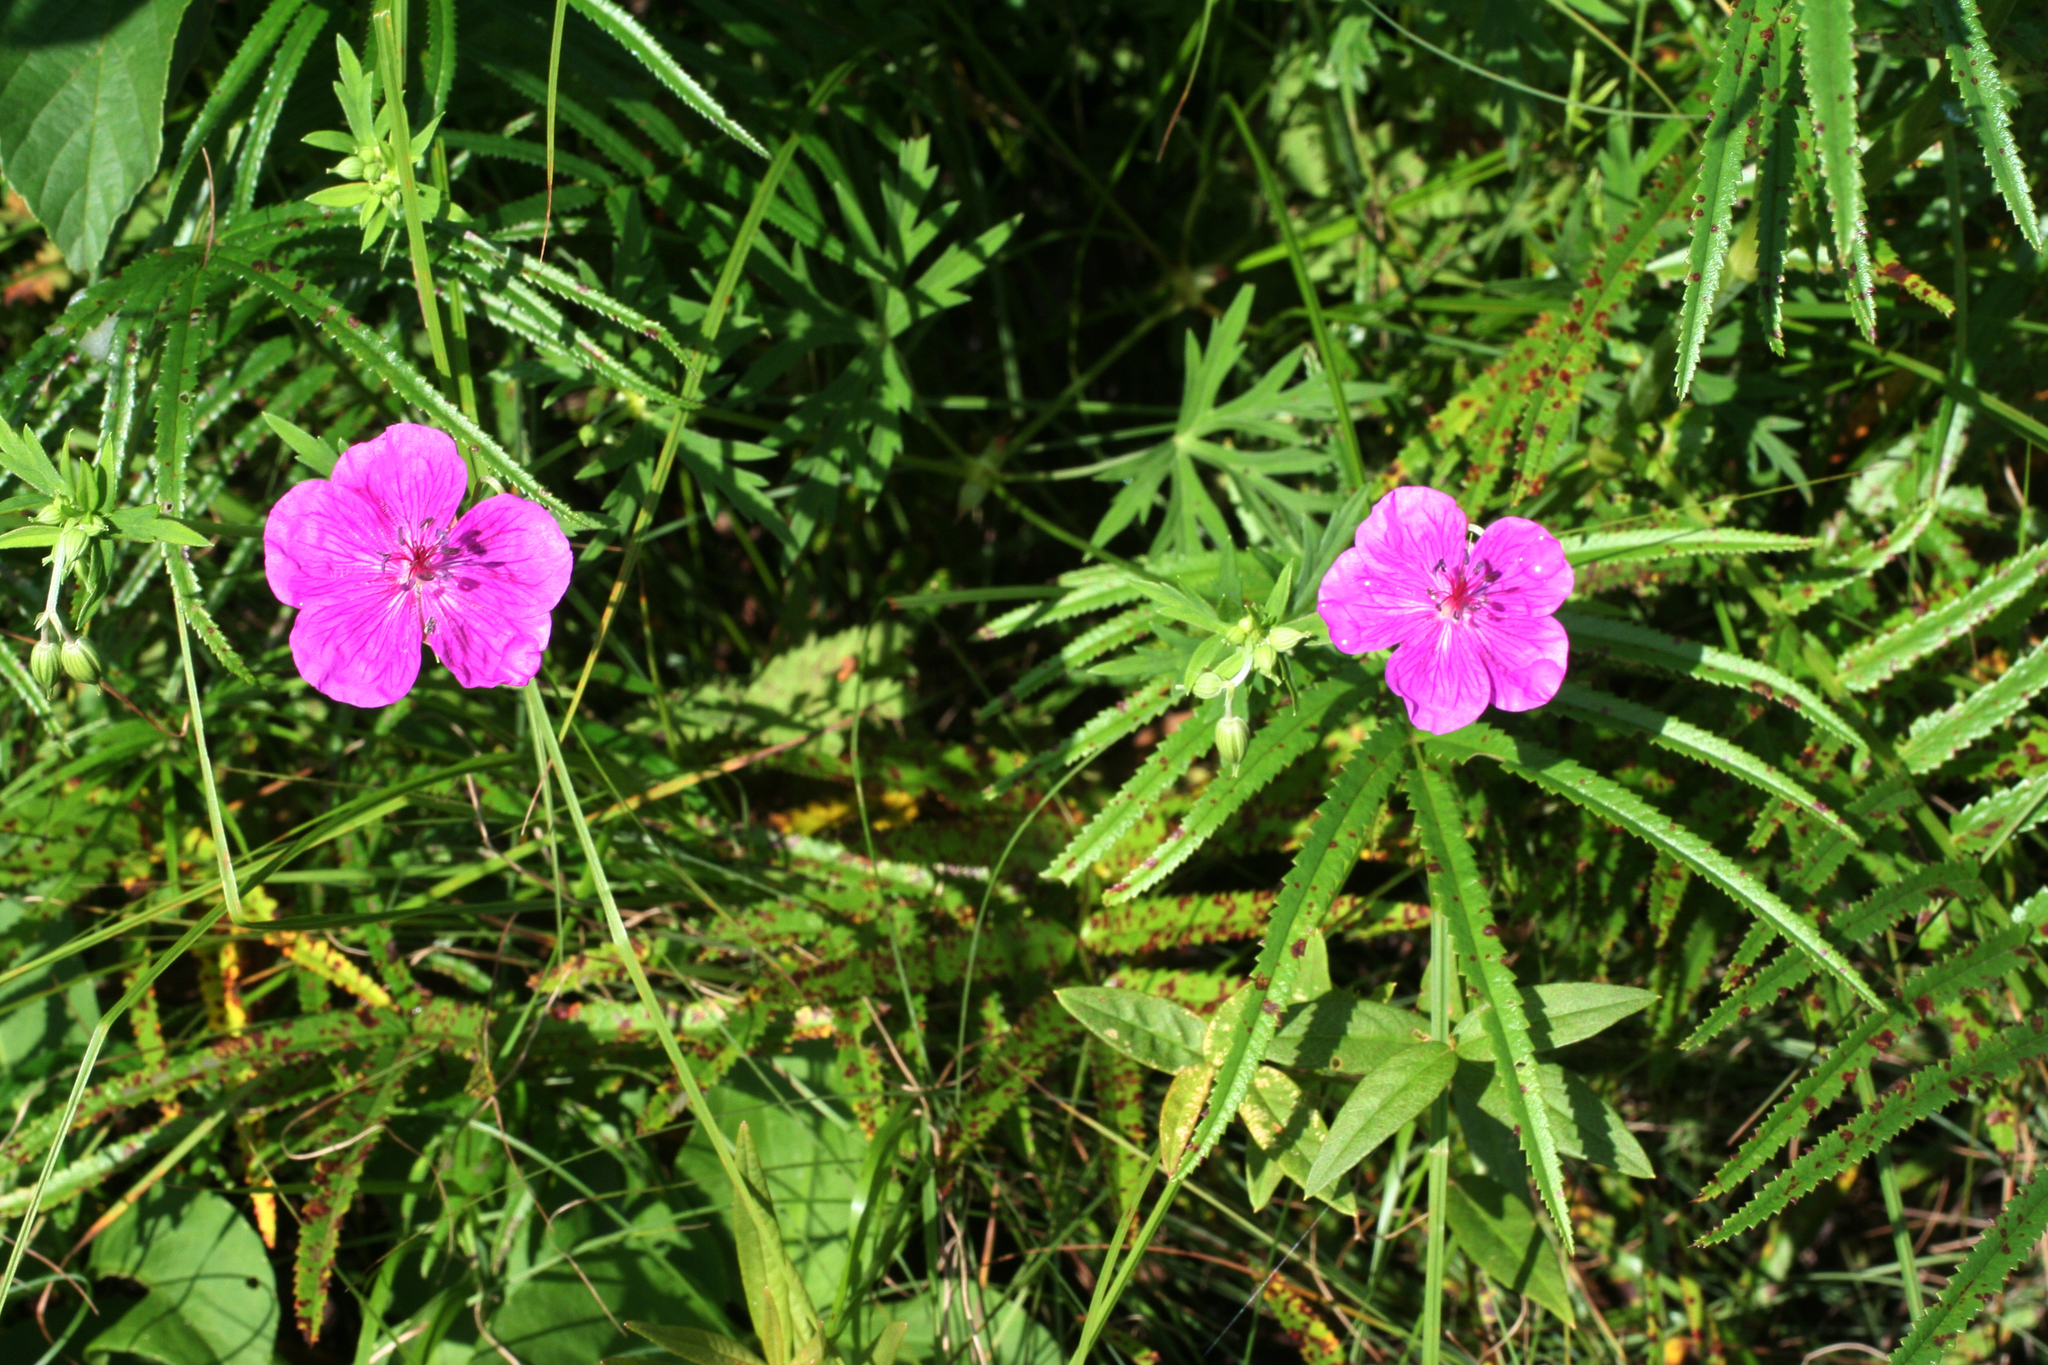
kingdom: Plantae
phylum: Tracheophyta
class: Magnoliopsida
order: Geraniales
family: Geraniaceae
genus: Geranium
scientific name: Geranium soboliferum
